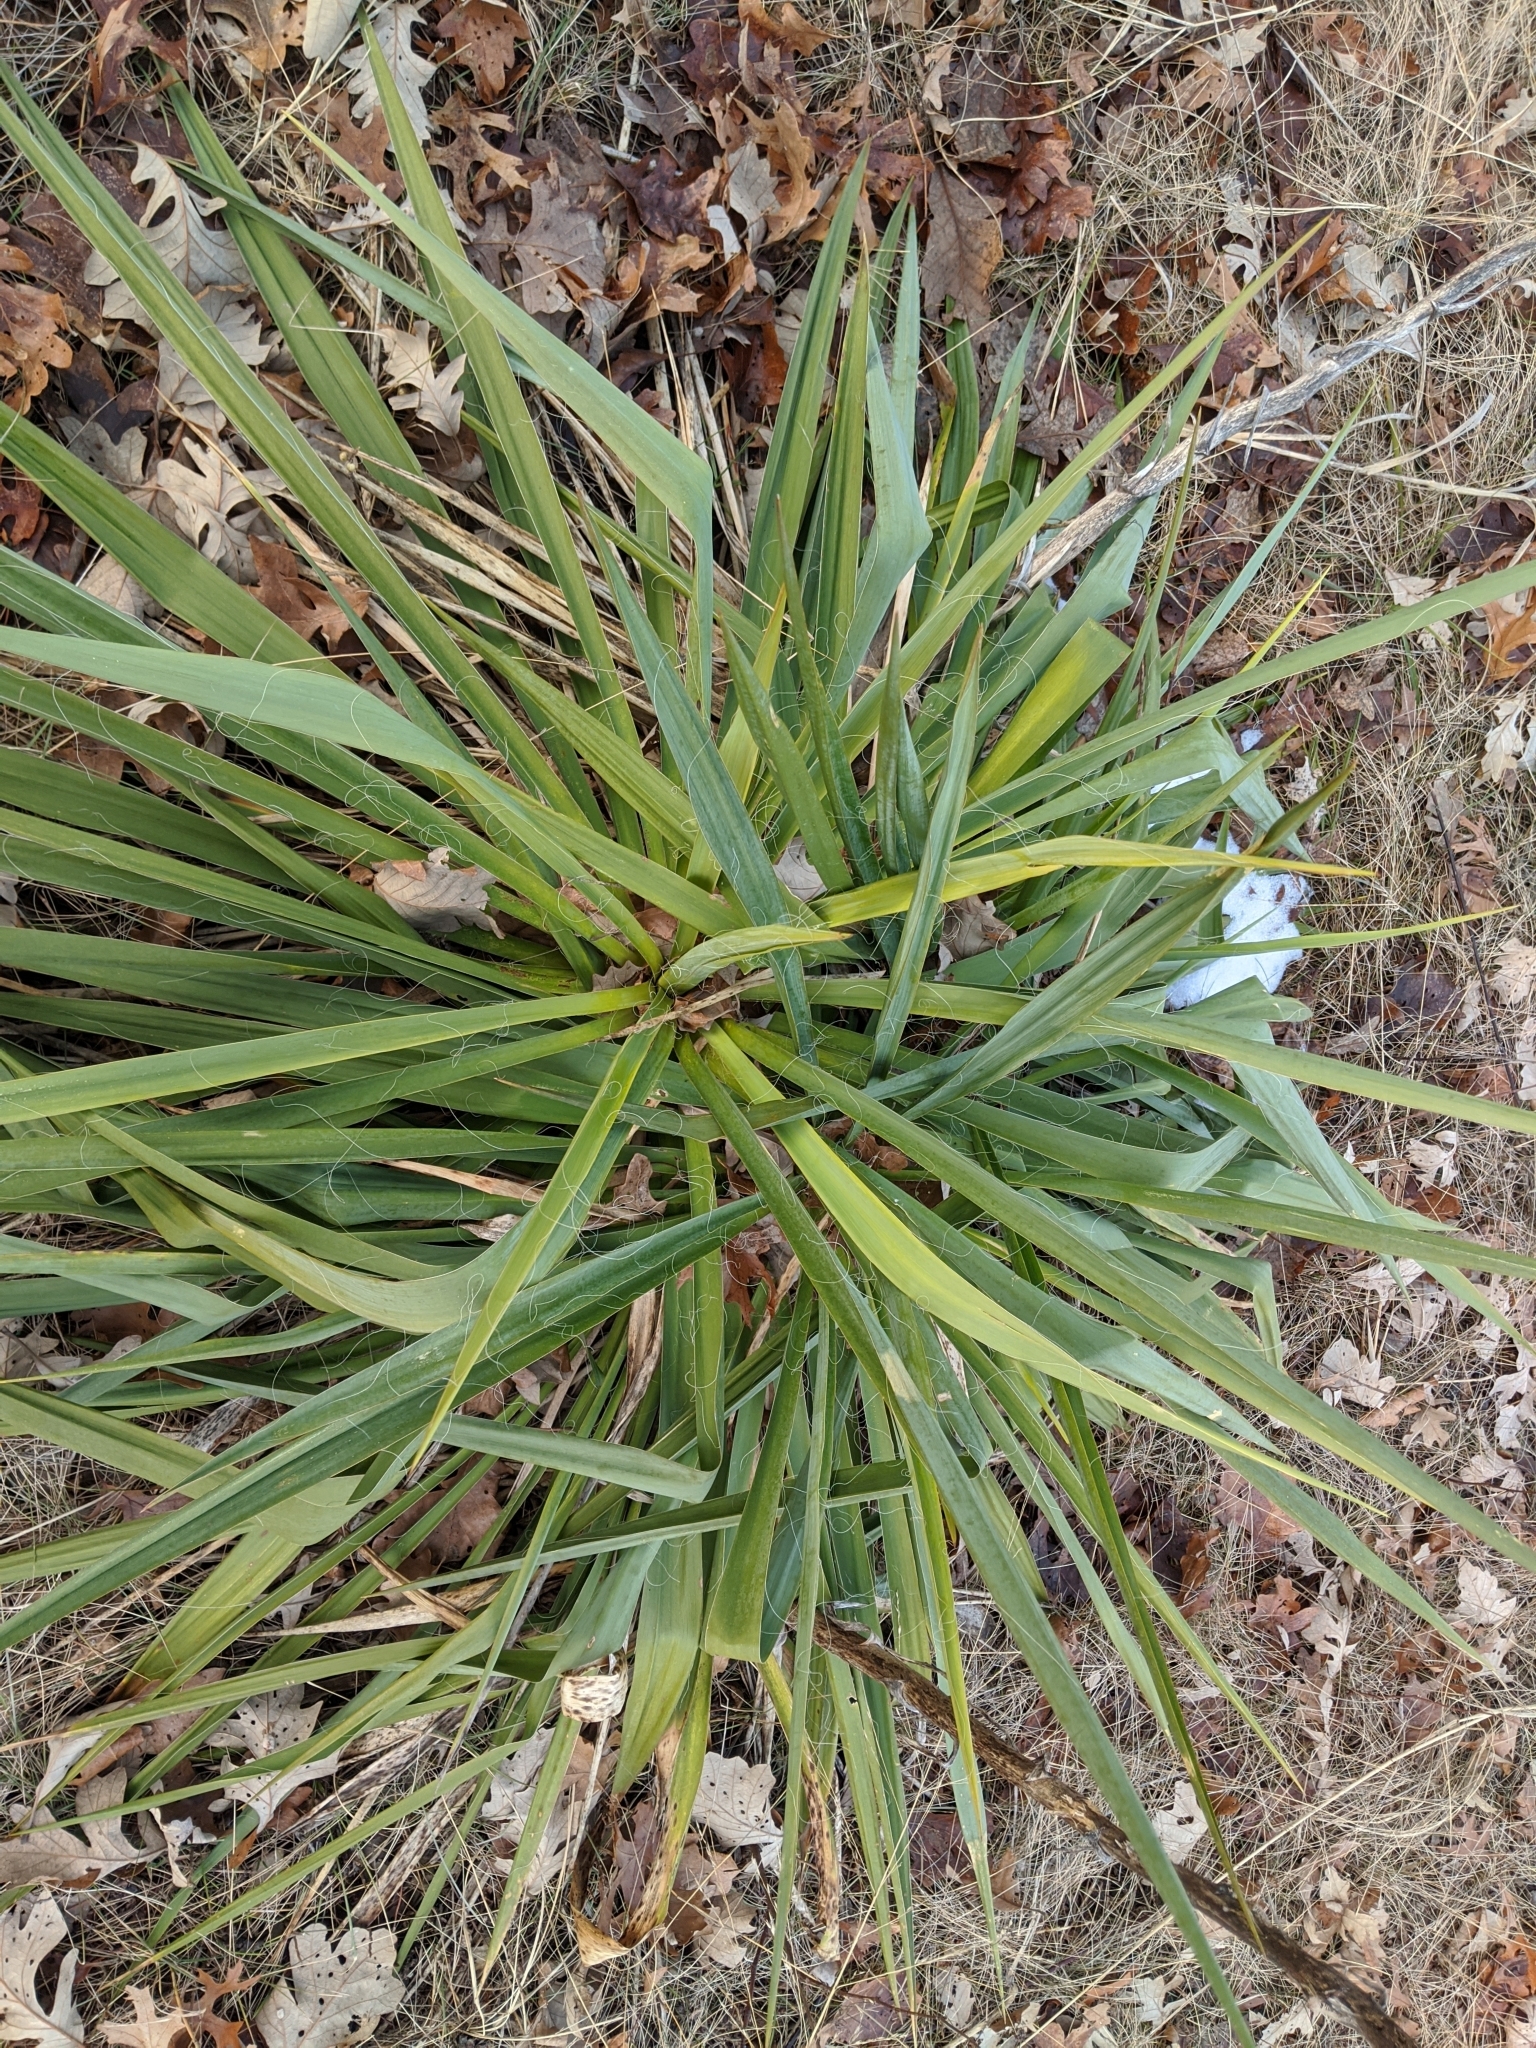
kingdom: Plantae
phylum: Tracheophyta
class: Liliopsida
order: Asparagales
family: Asparagaceae
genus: Yucca
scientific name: Yucca flaccida
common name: Adam's-needle
